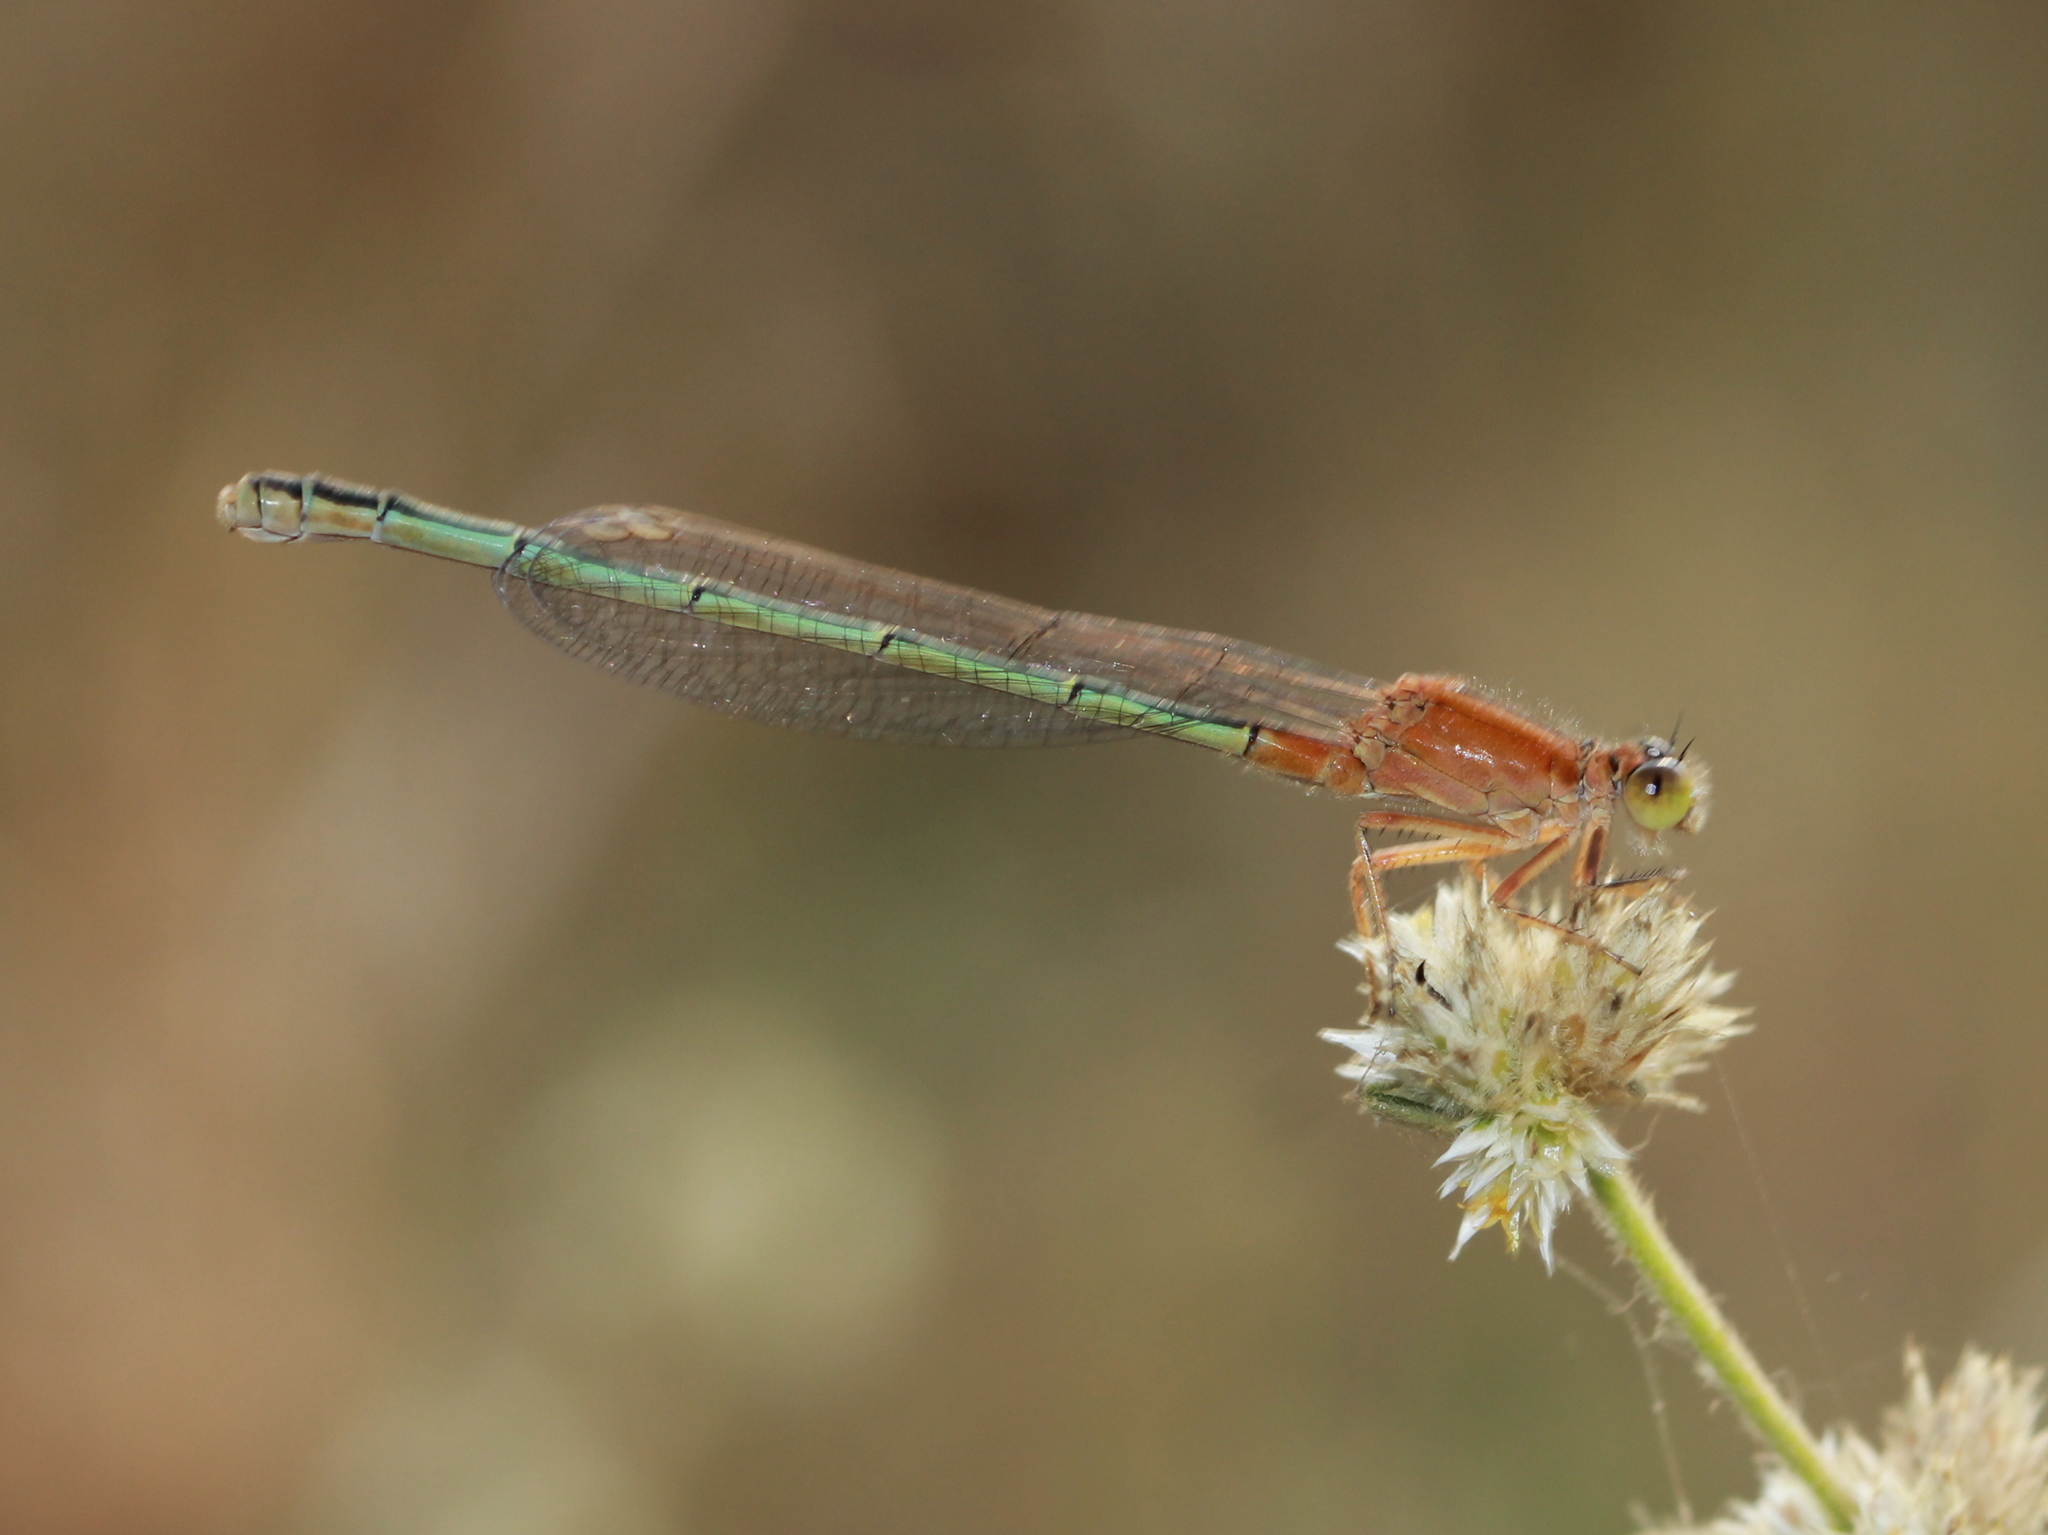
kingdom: Animalia
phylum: Arthropoda
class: Insecta
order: Odonata
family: Coenagrionidae
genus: Ischnura
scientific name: Ischnura senegalensis
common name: Tropical bluetail
